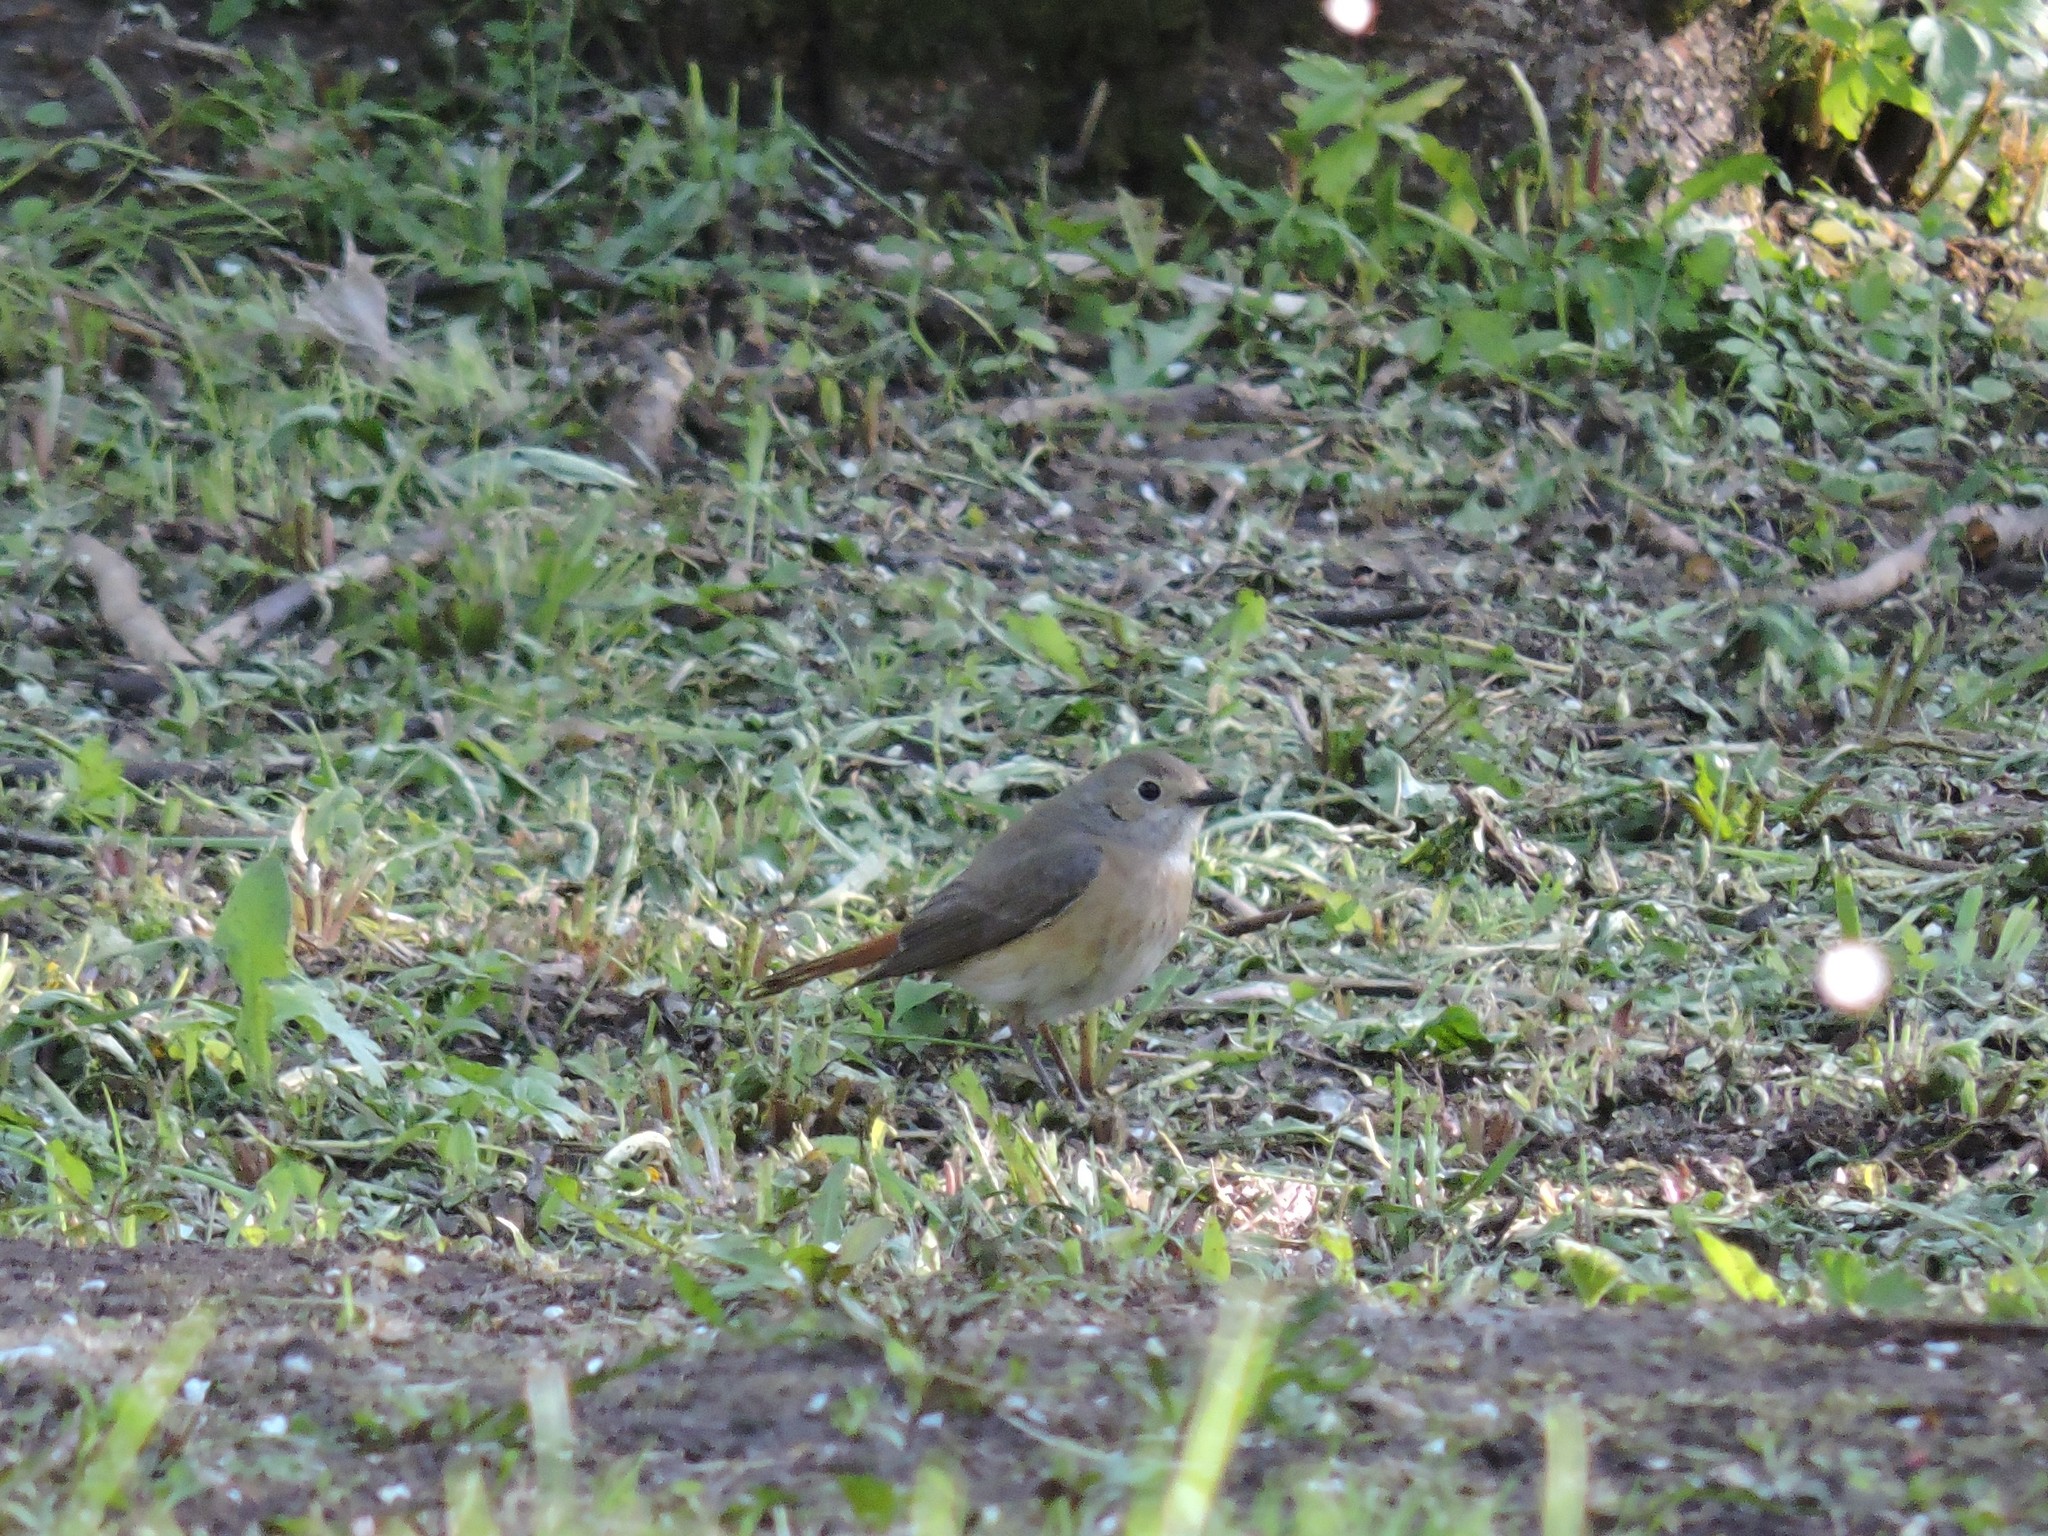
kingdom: Animalia
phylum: Chordata
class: Aves
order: Passeriformes
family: Muscicapidae
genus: Phoenicurus
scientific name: Phoenicurus phoenicurus
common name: Common redstart
